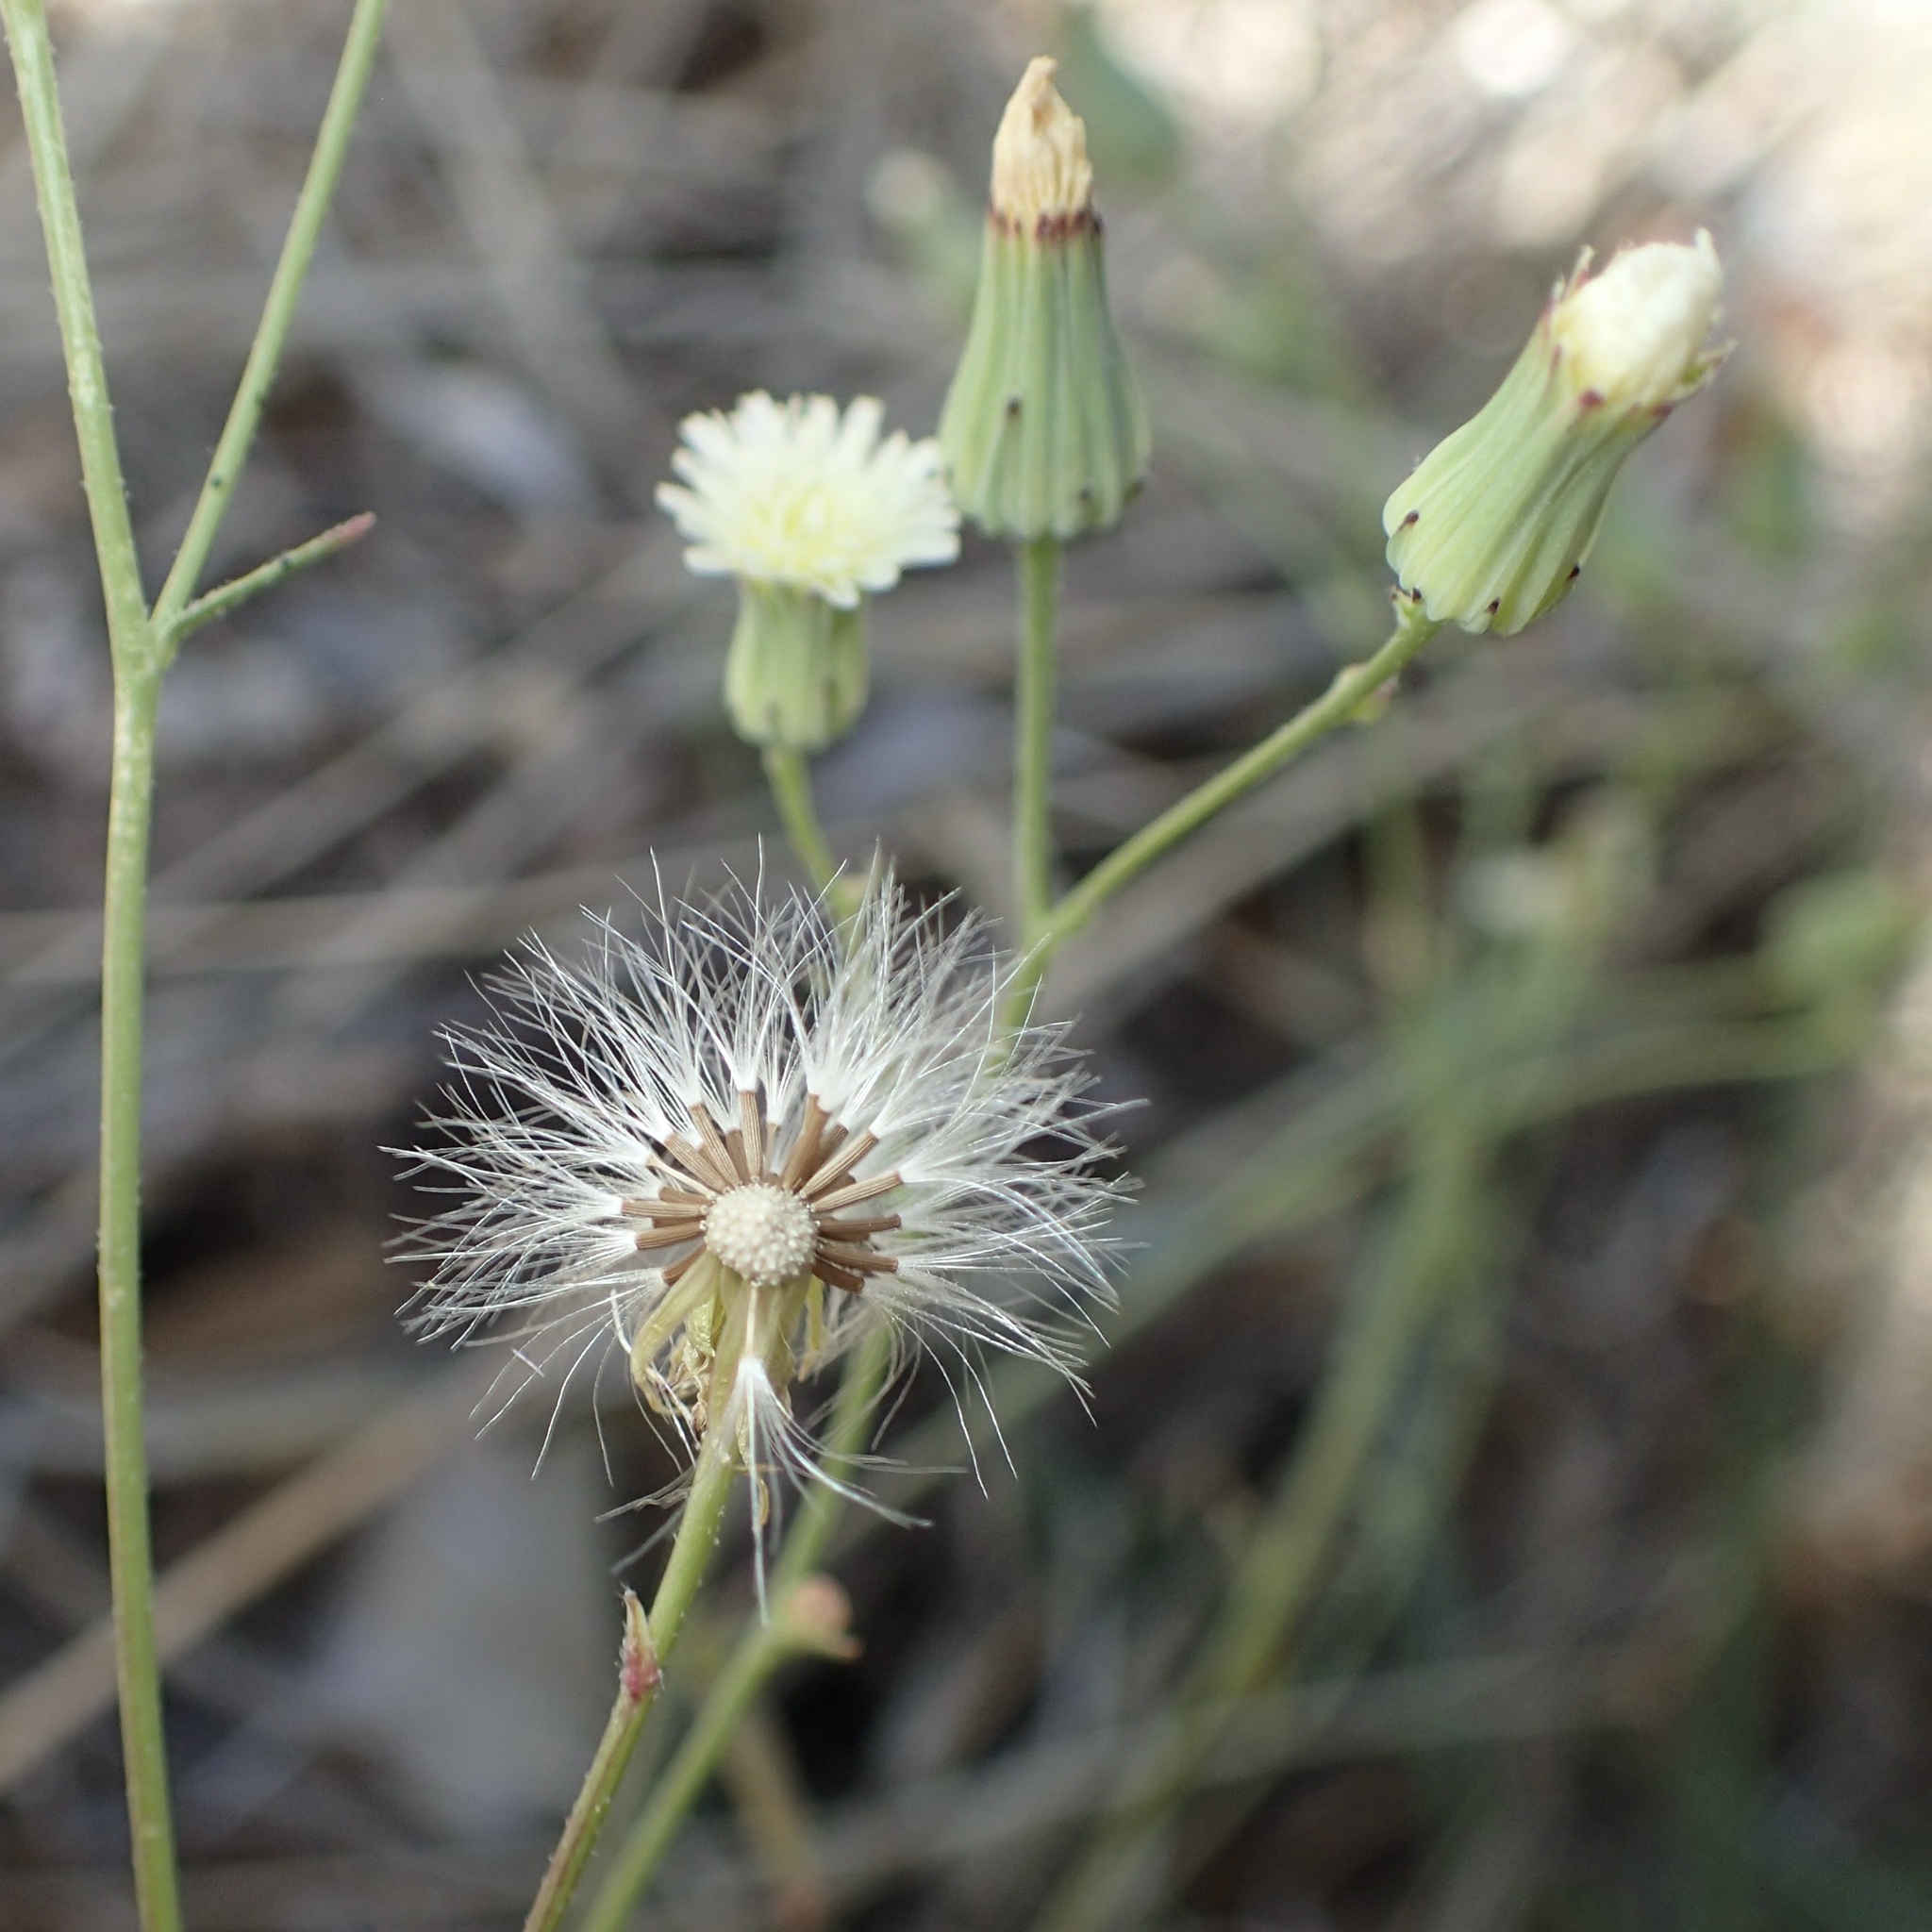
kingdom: Plantae
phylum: Tracheophyta
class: Magnoliopsida
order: Asterales
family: Asteraceae
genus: Malacothrix
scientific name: Malacothrix stebbinsii
